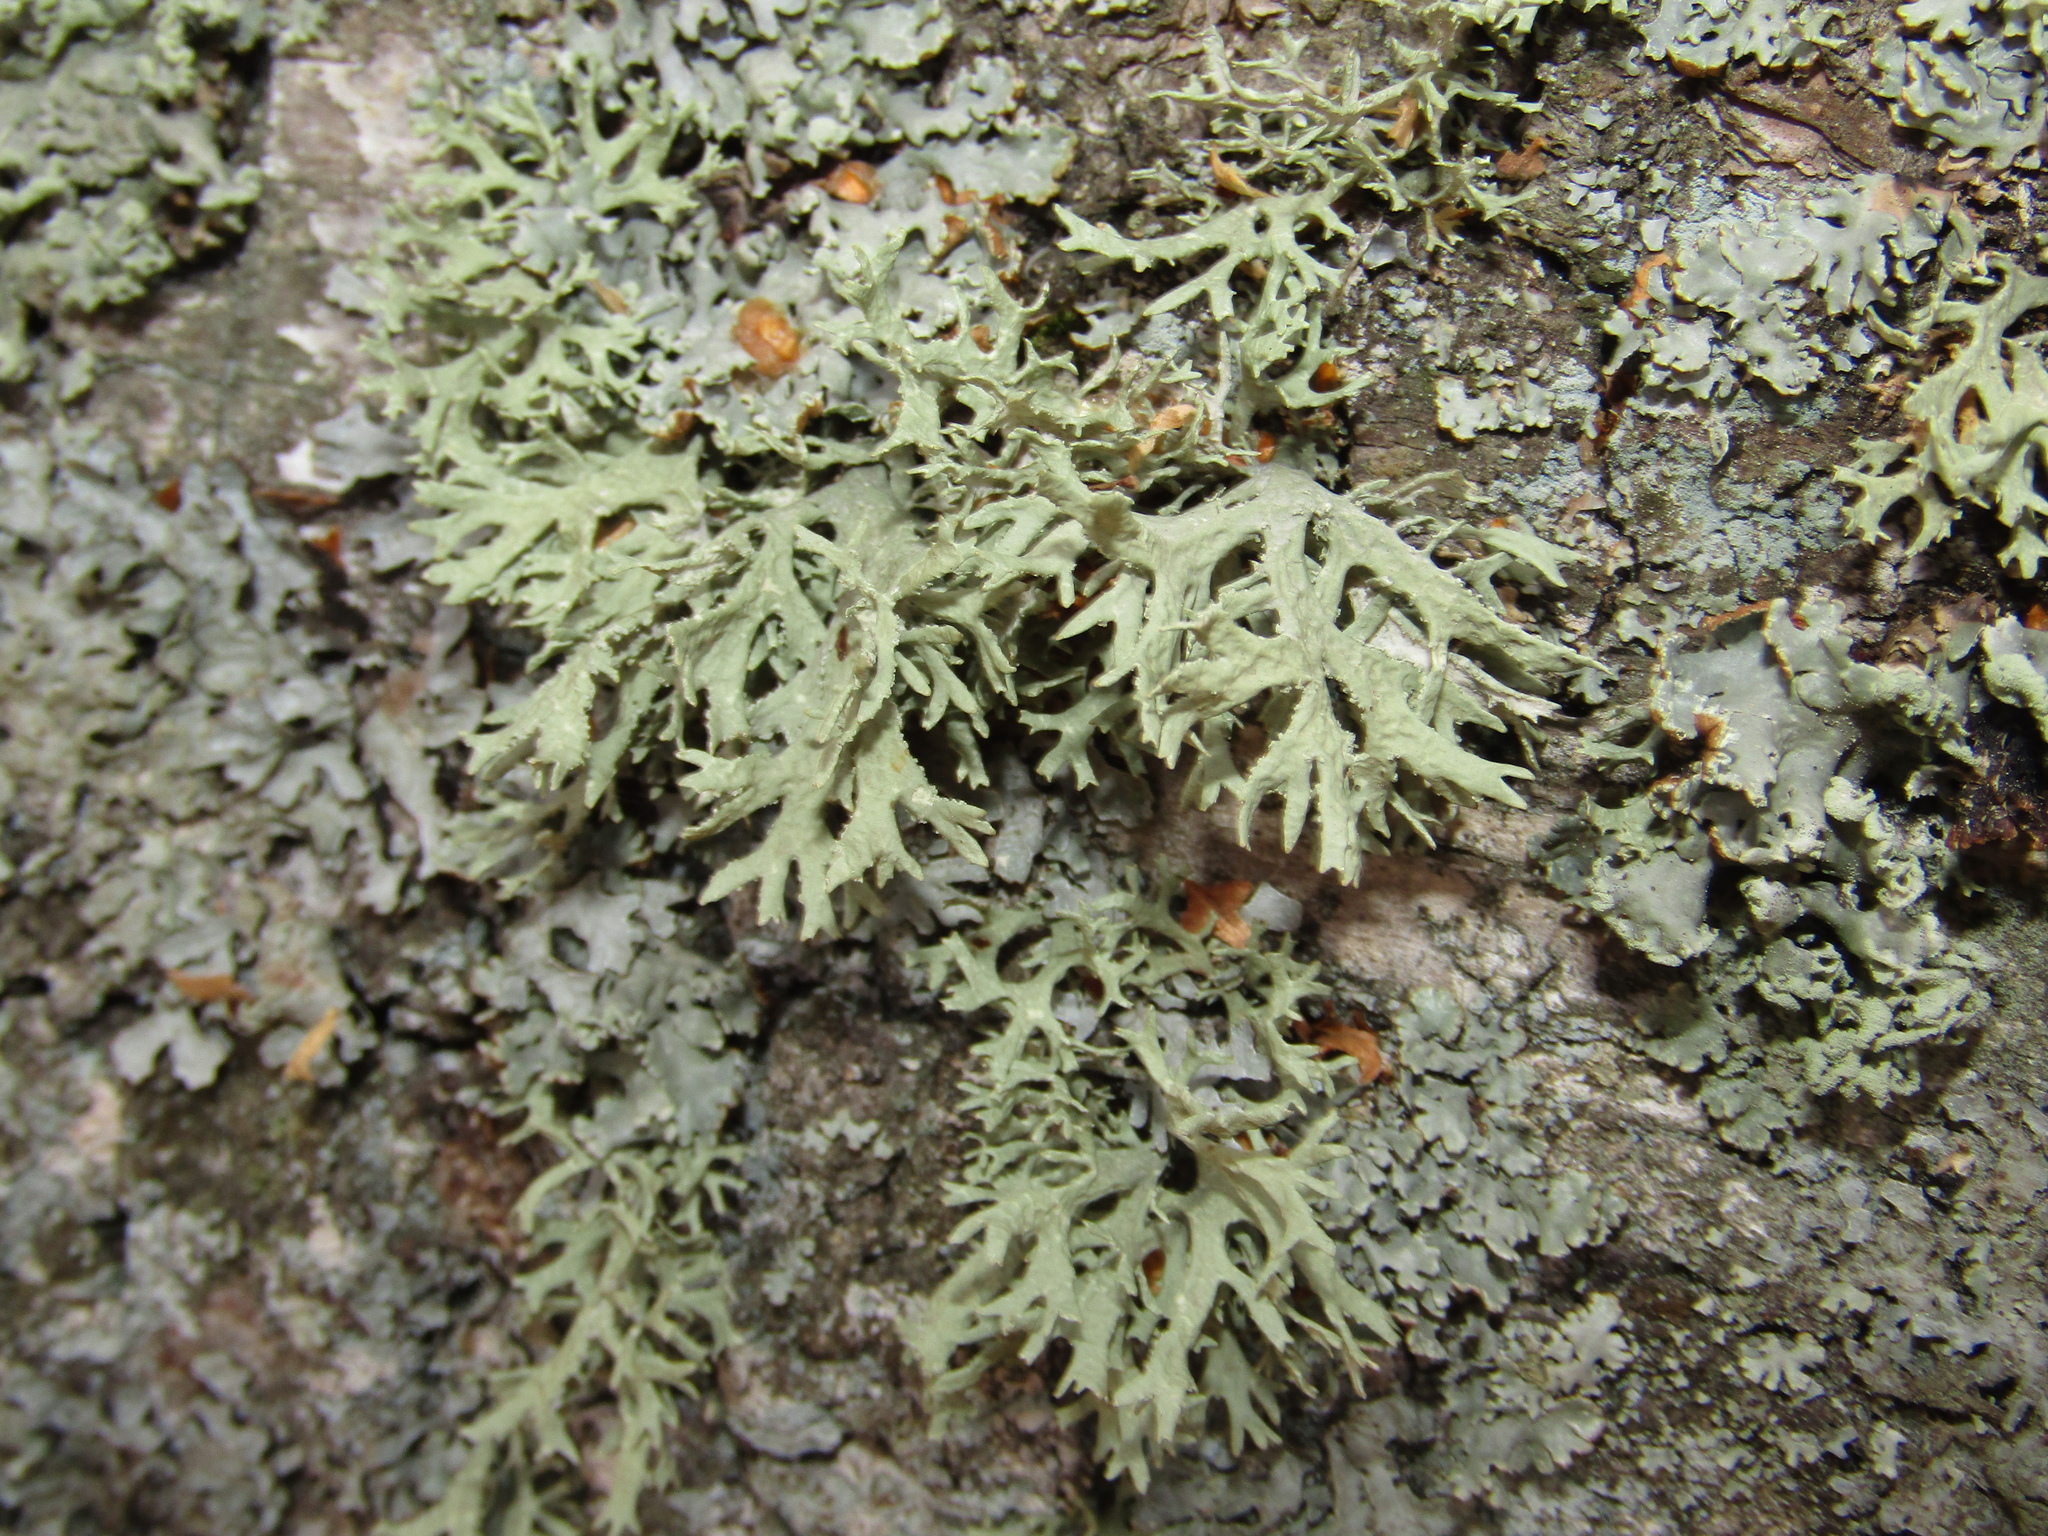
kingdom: Fungi
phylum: Ascomycota
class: Lecanoromycetes
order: Lecanorales
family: Parmeliaceae
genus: Evernia
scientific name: Evernia prunastri
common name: Oak moss
